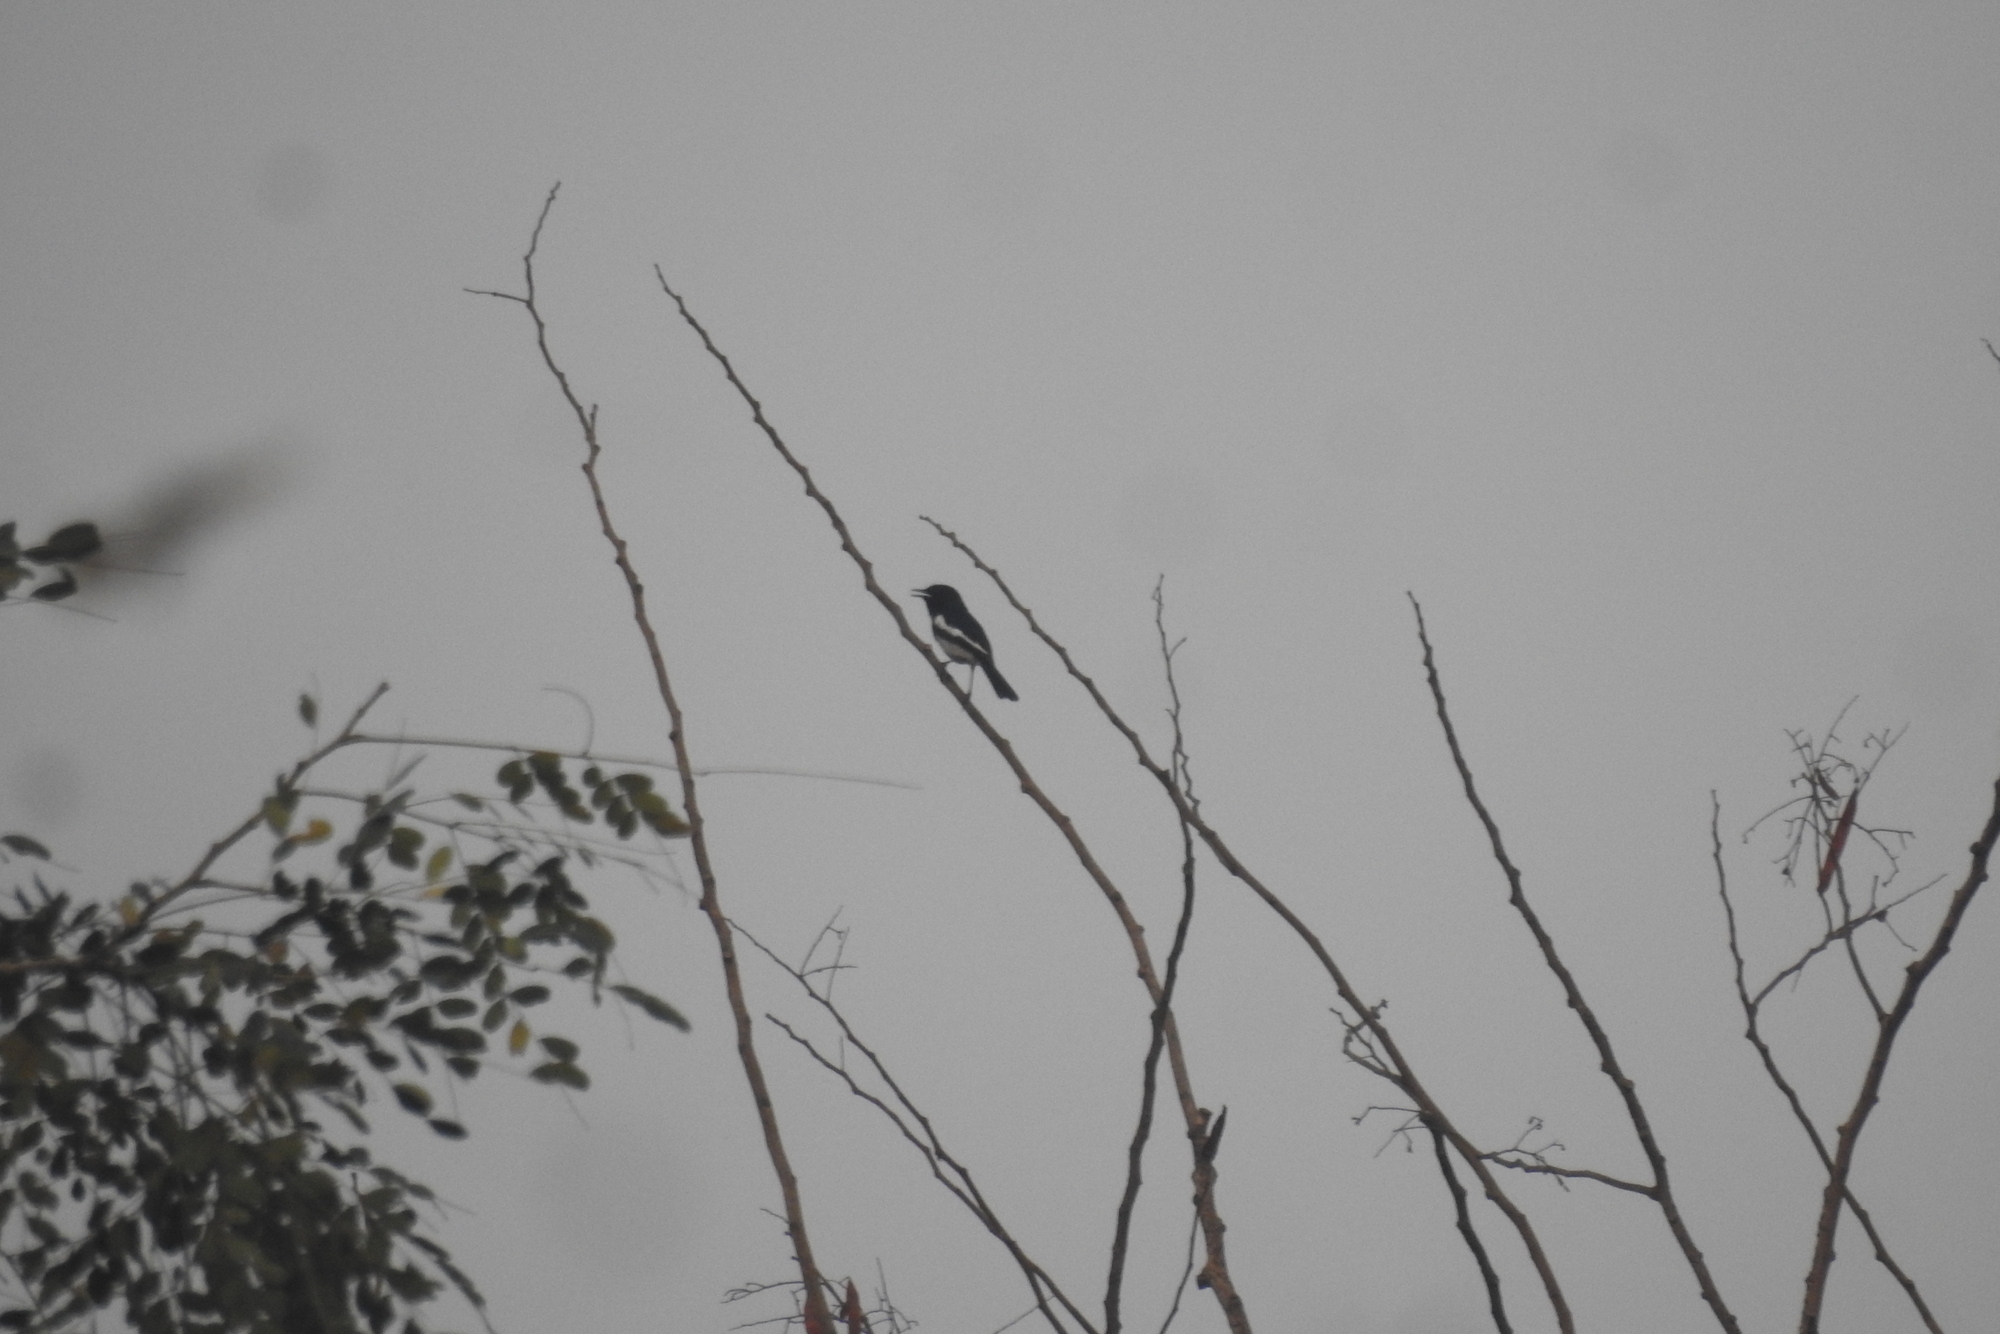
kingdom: Animalia
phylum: Chordata
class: Aves
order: Passeriformes
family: Muscicapidae
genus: Copsychus
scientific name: Copsychus saularis
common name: Oriental magpie-robin
